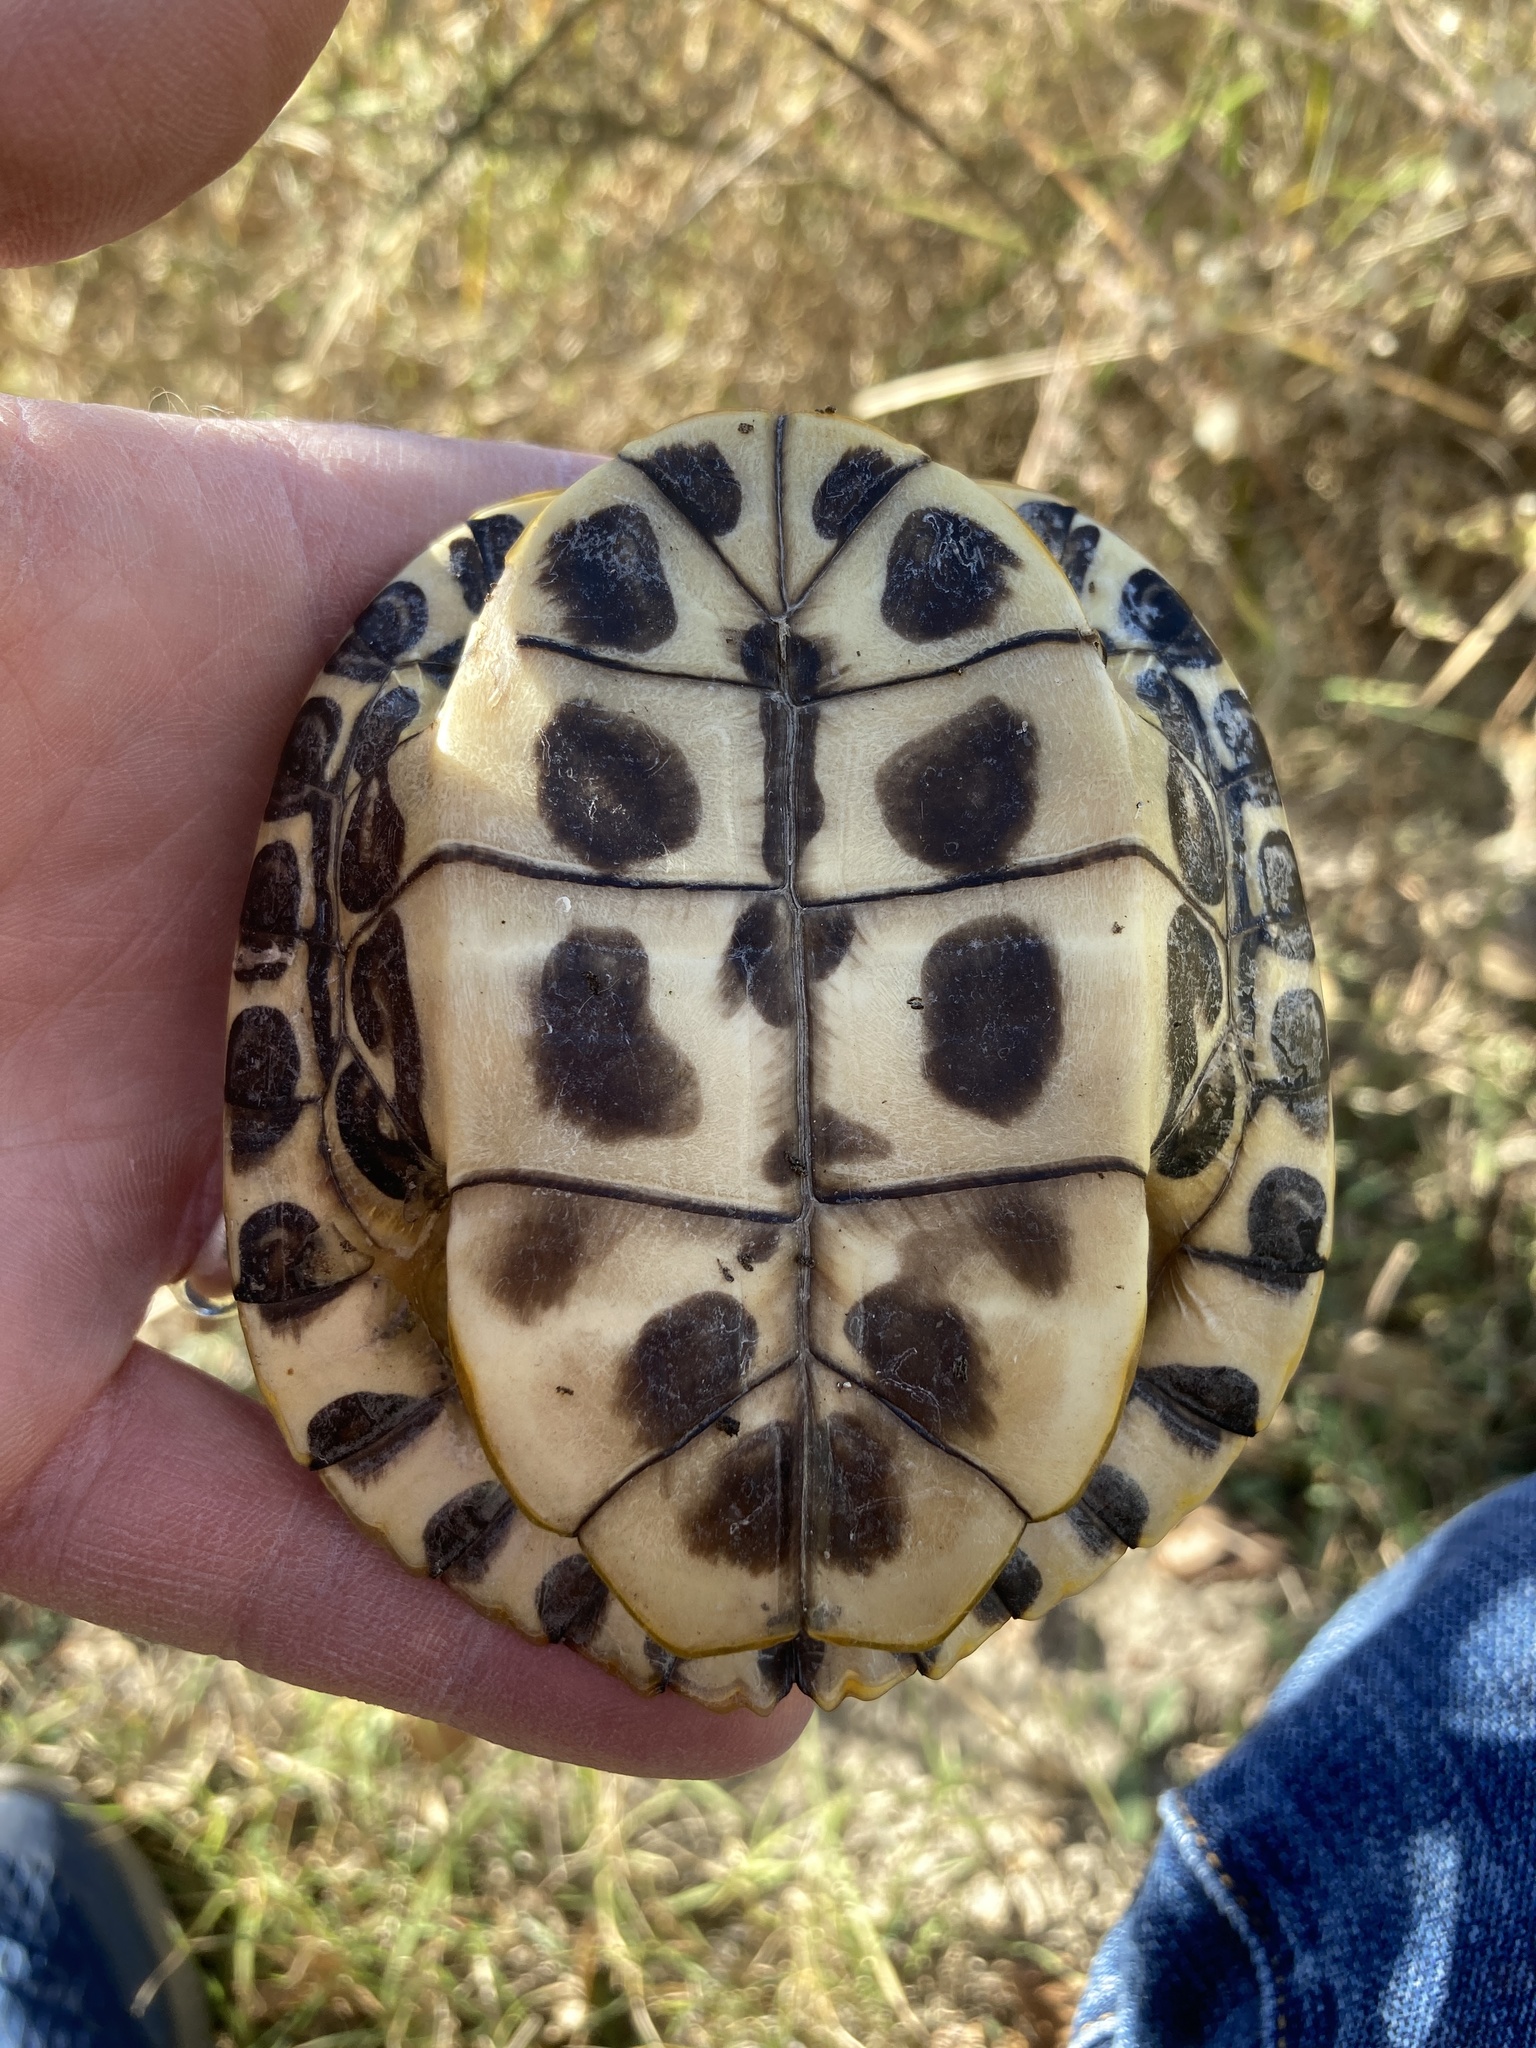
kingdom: Animalia
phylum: Chordata
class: Testudines
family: Emydidae
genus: Trachemys
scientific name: Trachemys scripta
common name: Slider
